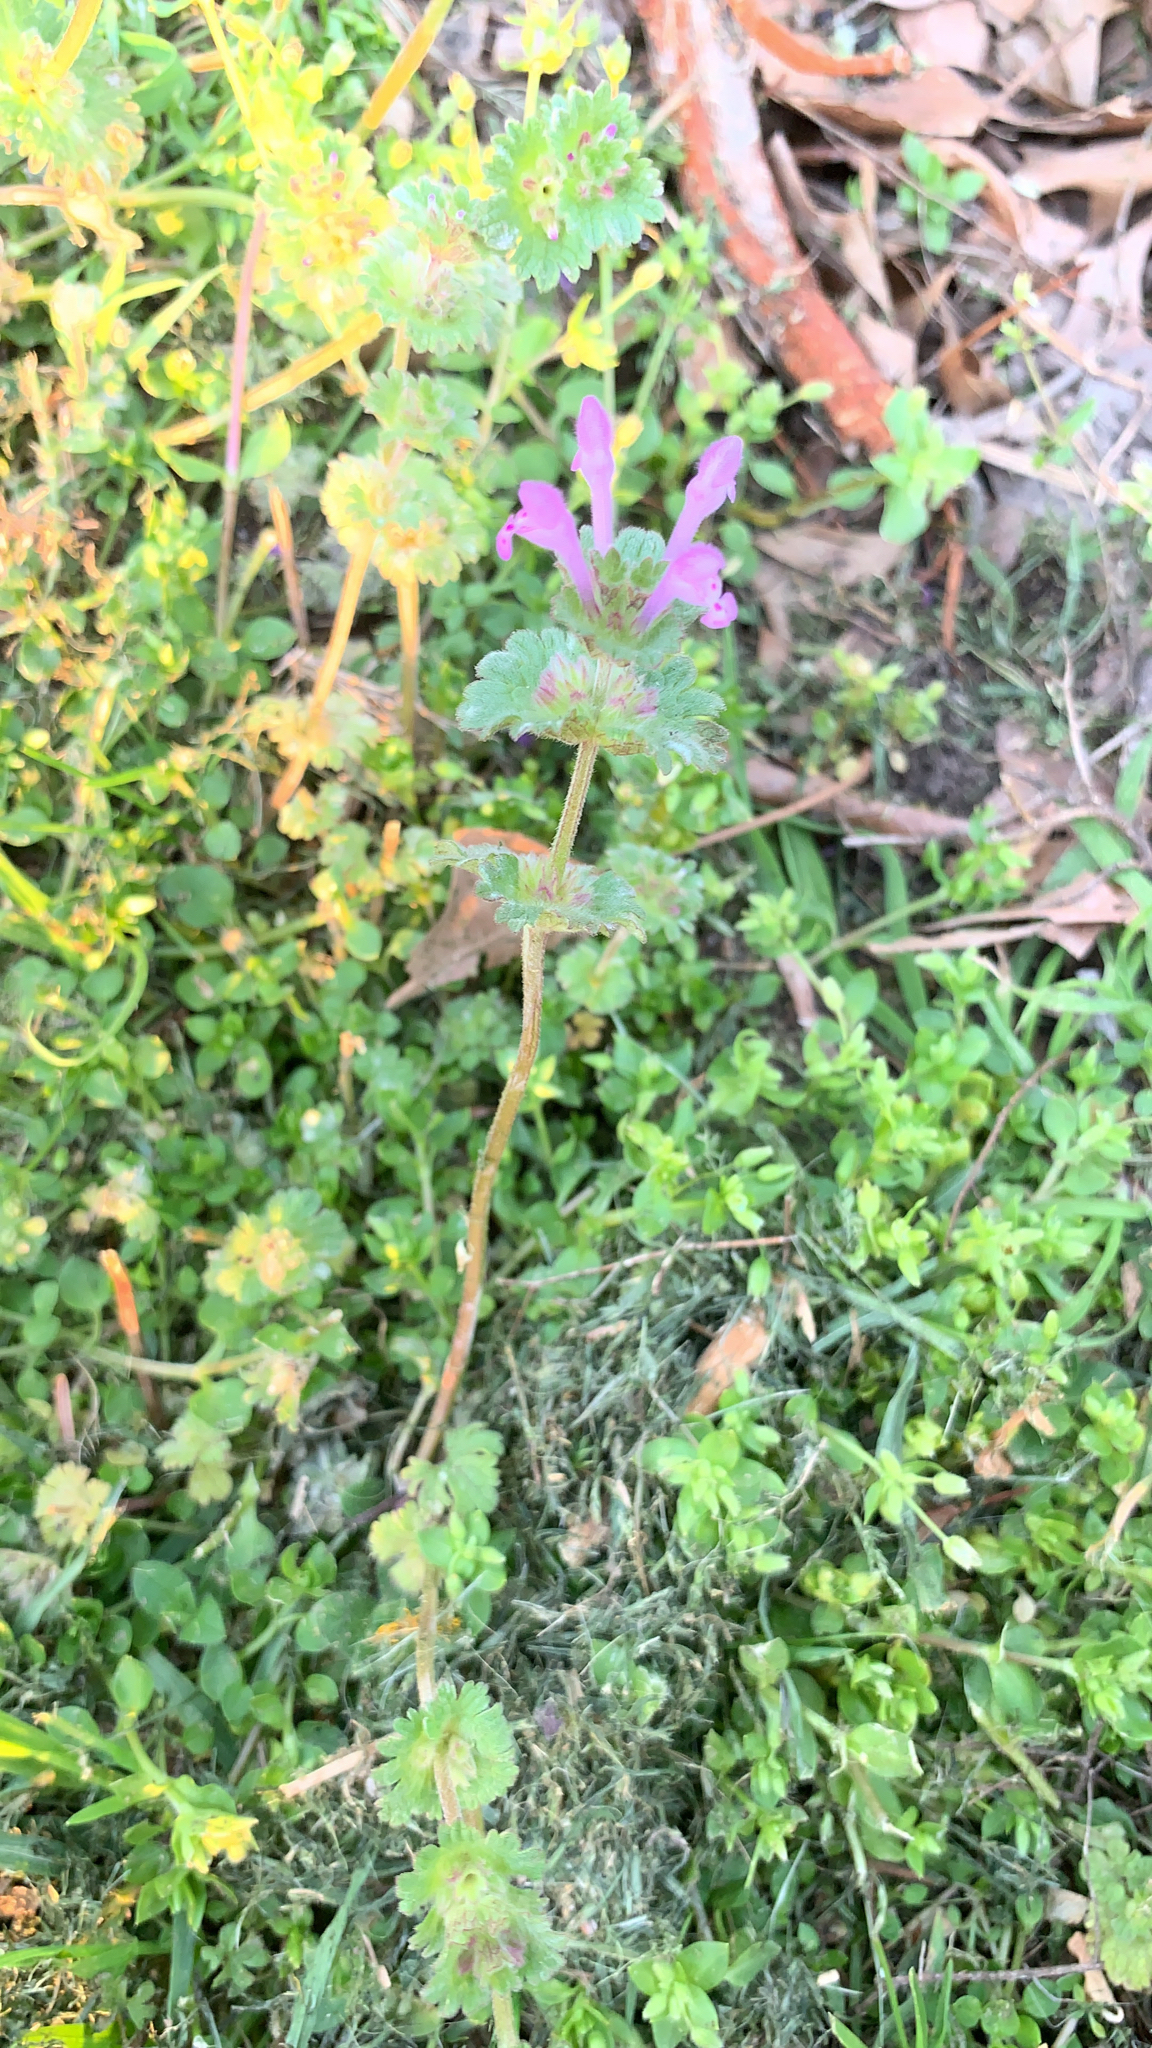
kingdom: Plantae
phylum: Tracheophyta
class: Magnoliopsida
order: Lamiales
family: Lamiaceae
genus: Lamium
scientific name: Lamium amplexicaule
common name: Henbit dead-nettle
